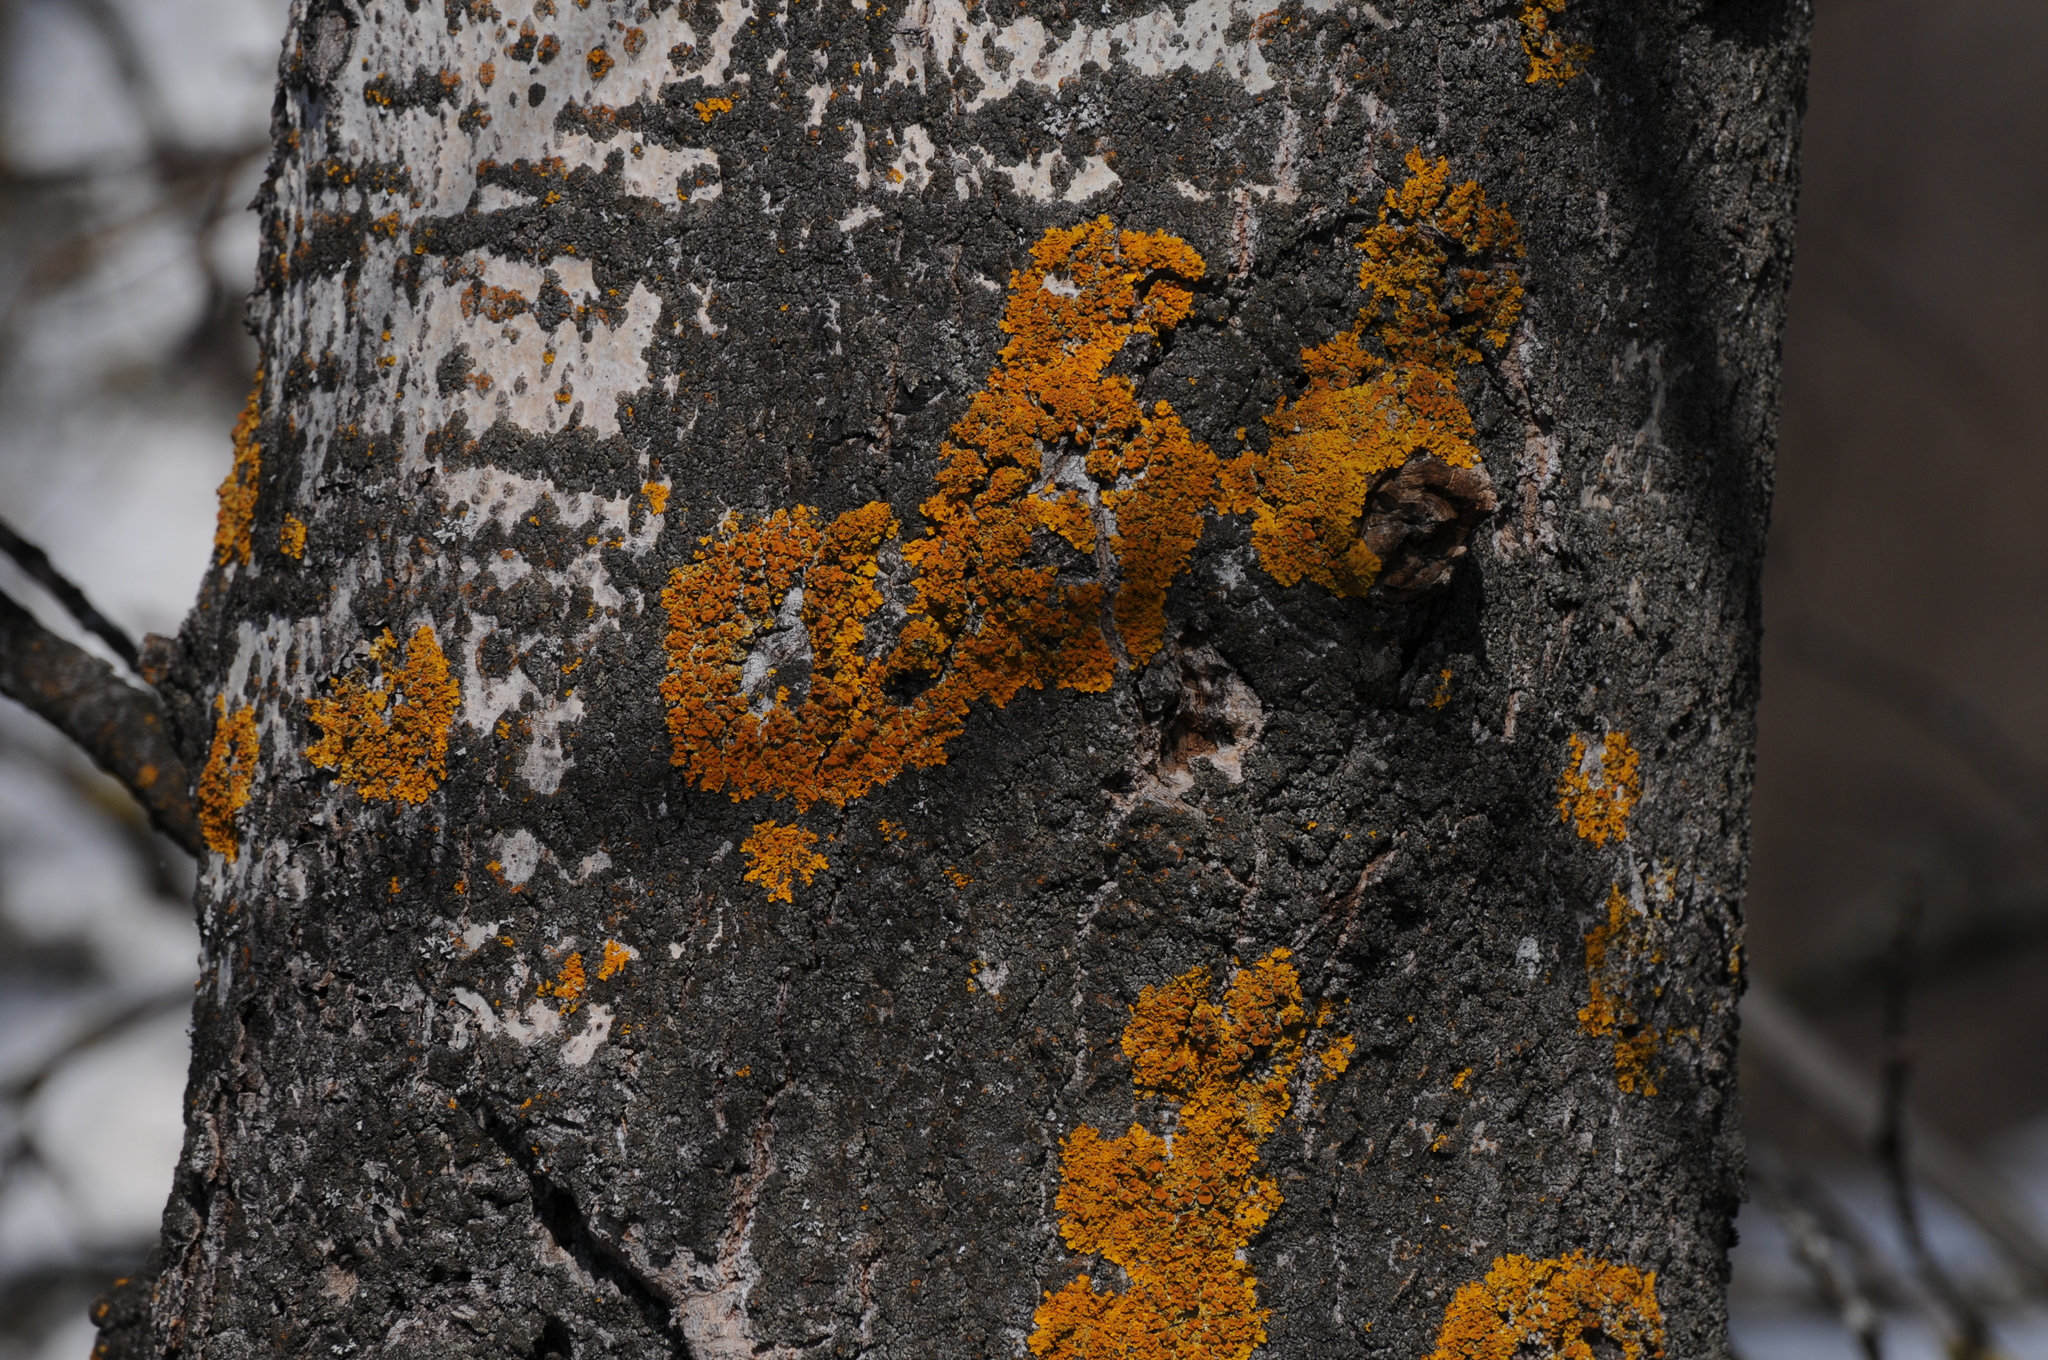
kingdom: Fungi
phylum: Ascomycota
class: Lecanoromycetes
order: Teloschistales
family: Teloschistaceae
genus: Xanthoria
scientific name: Xanthoria parietina
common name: Common orange lichen
